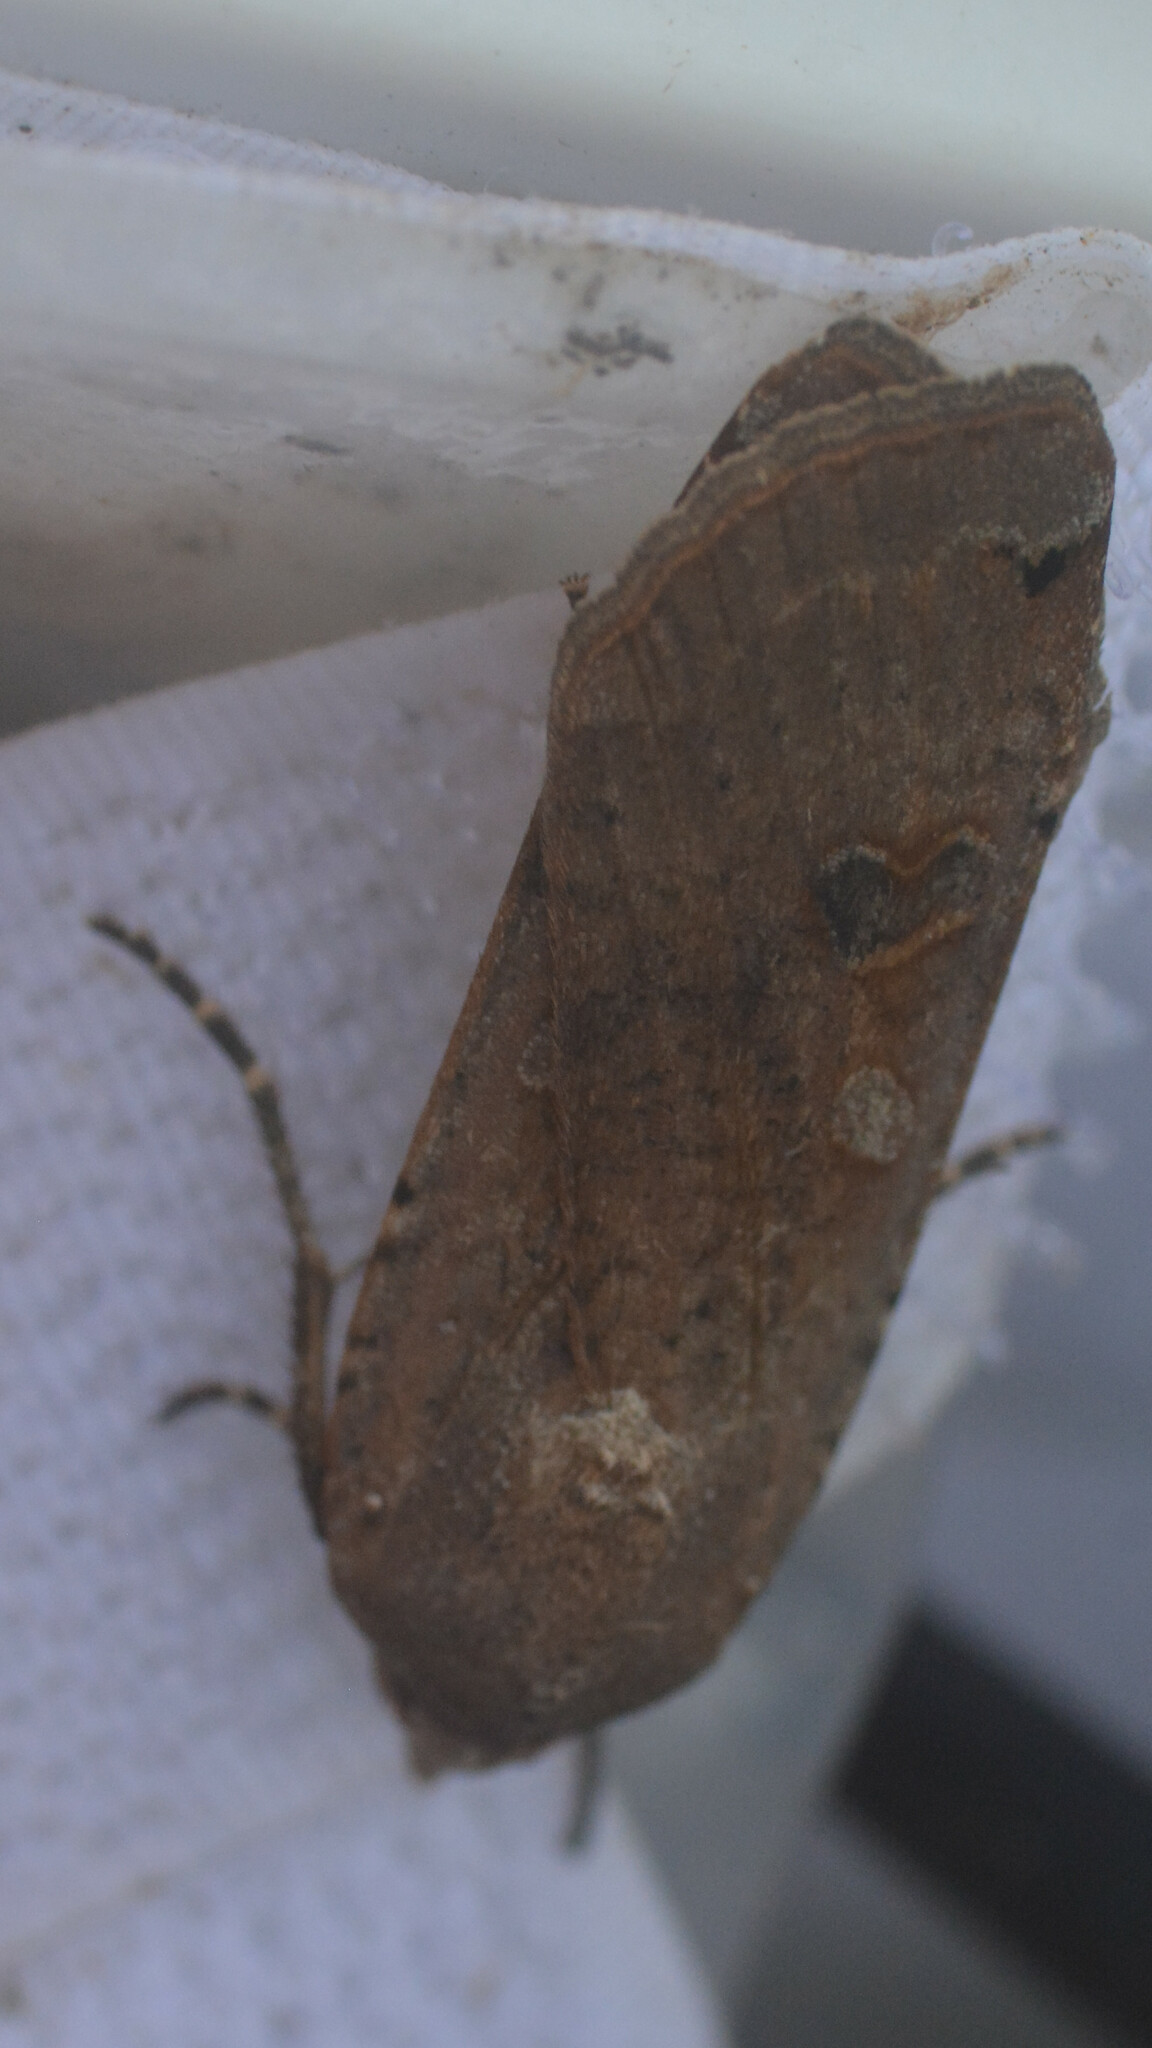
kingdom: Animalia
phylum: Arthropoda
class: Insecta
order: Lepidoptera
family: Noctuidae
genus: Noctua
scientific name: Noctua pronuba
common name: Large yellow underwing
